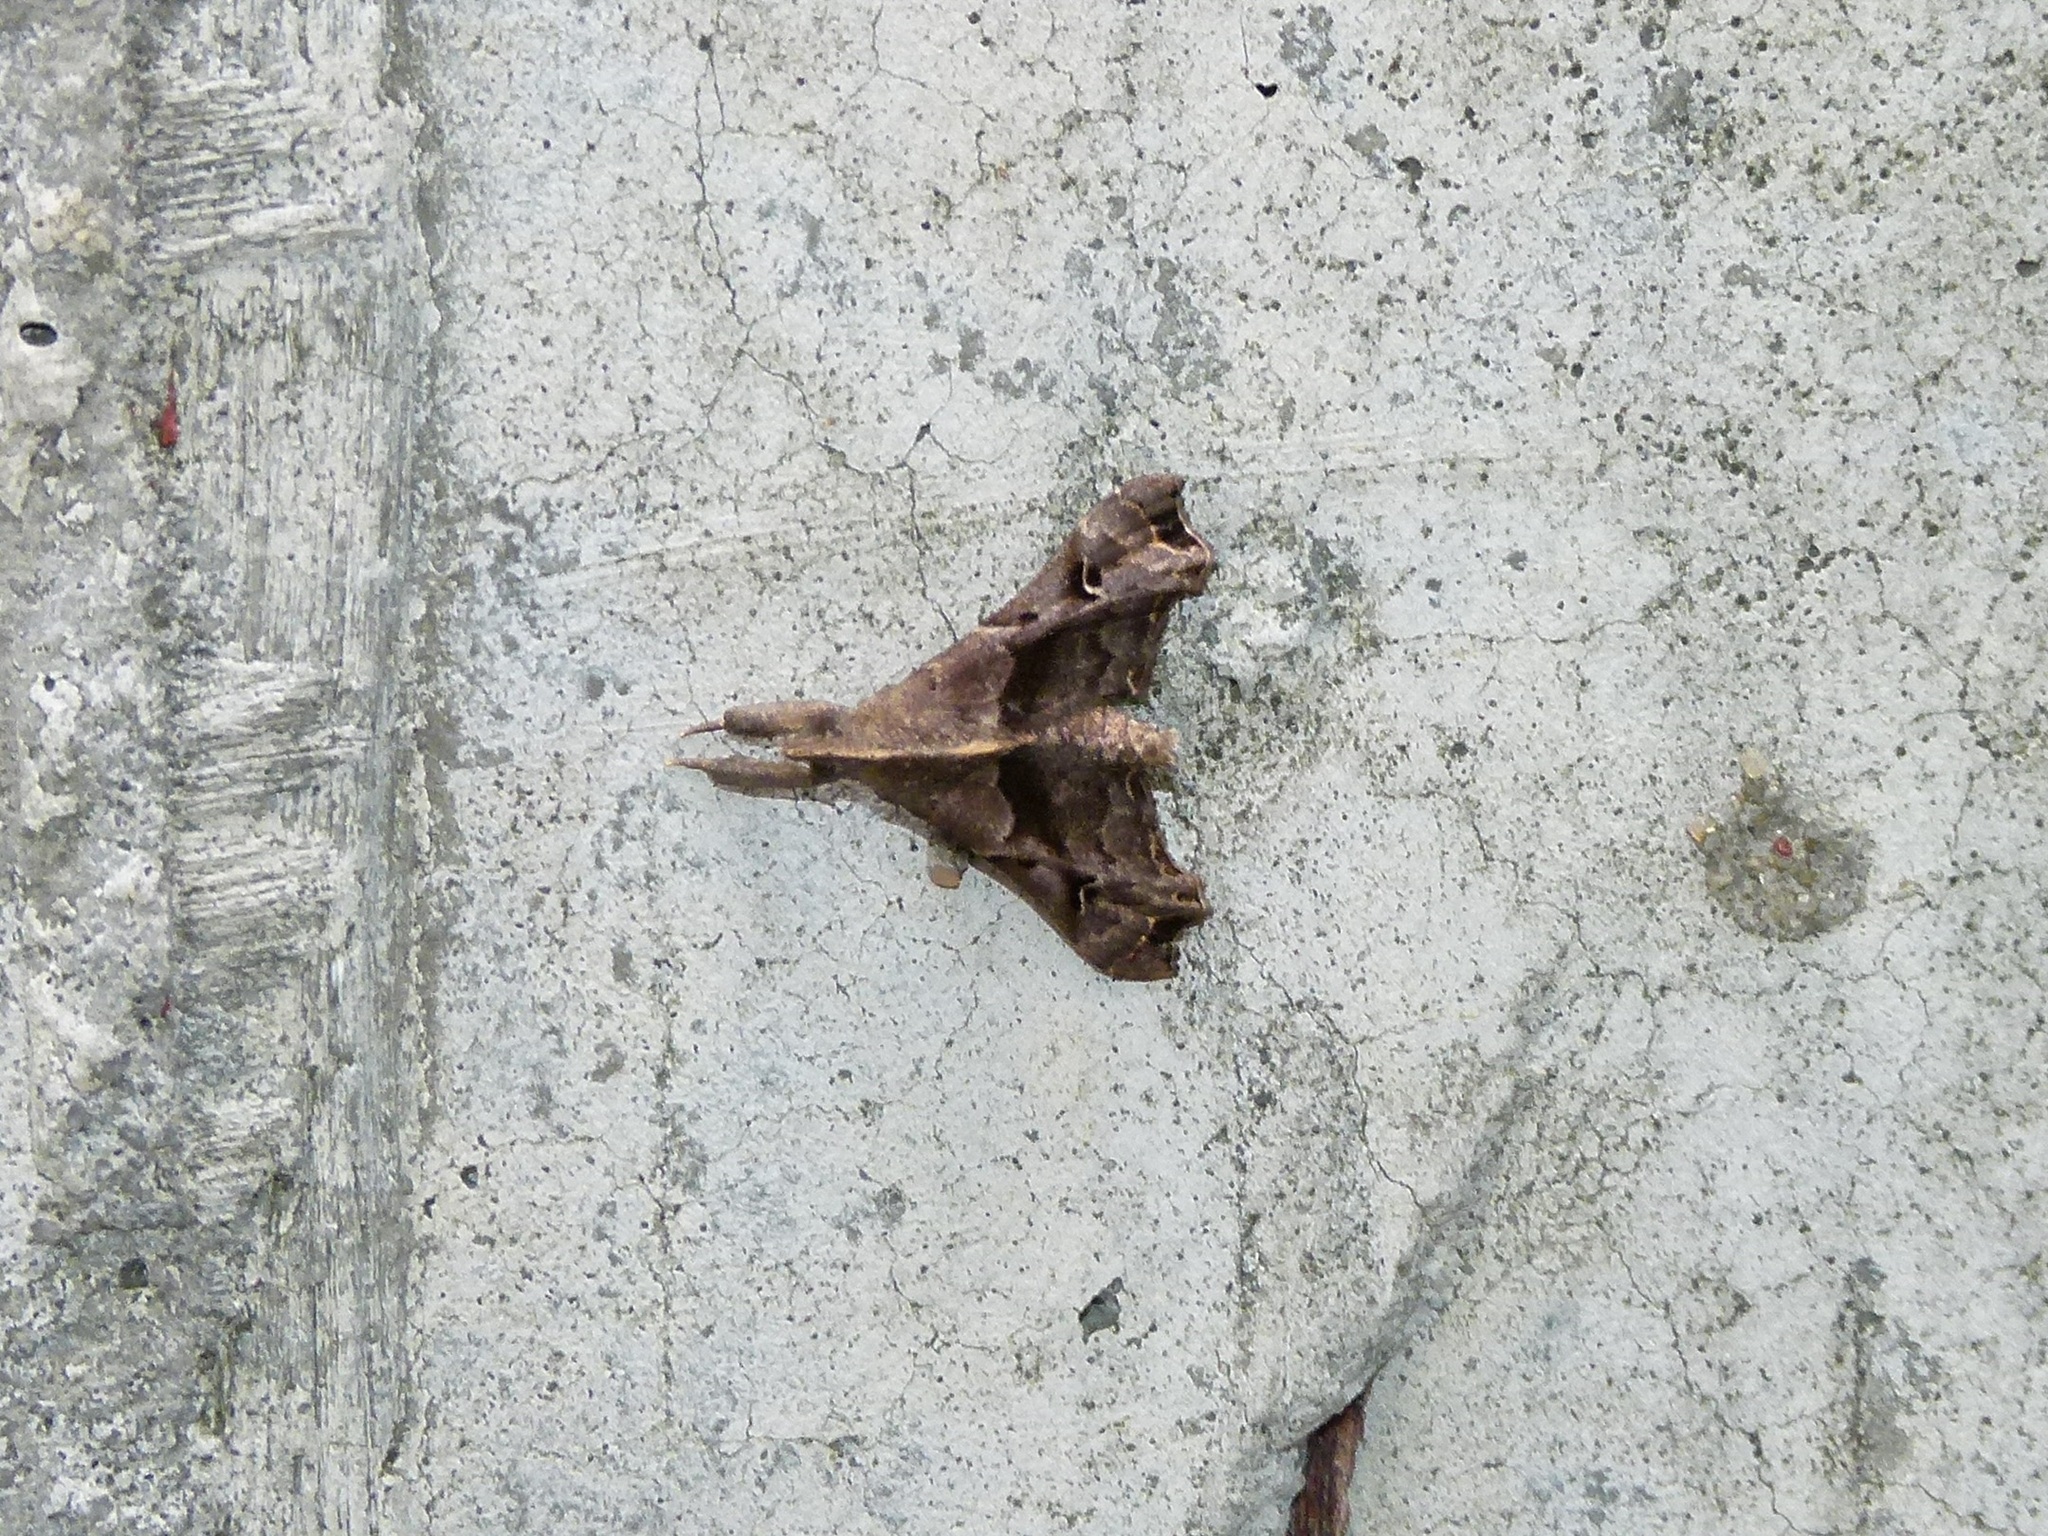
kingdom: Animalia
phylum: Arthropoda
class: Insecta
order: Lepidoptera
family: Erebidae
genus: Palthis
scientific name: Palthis asopialis
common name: Faint-spotted palthis moth
